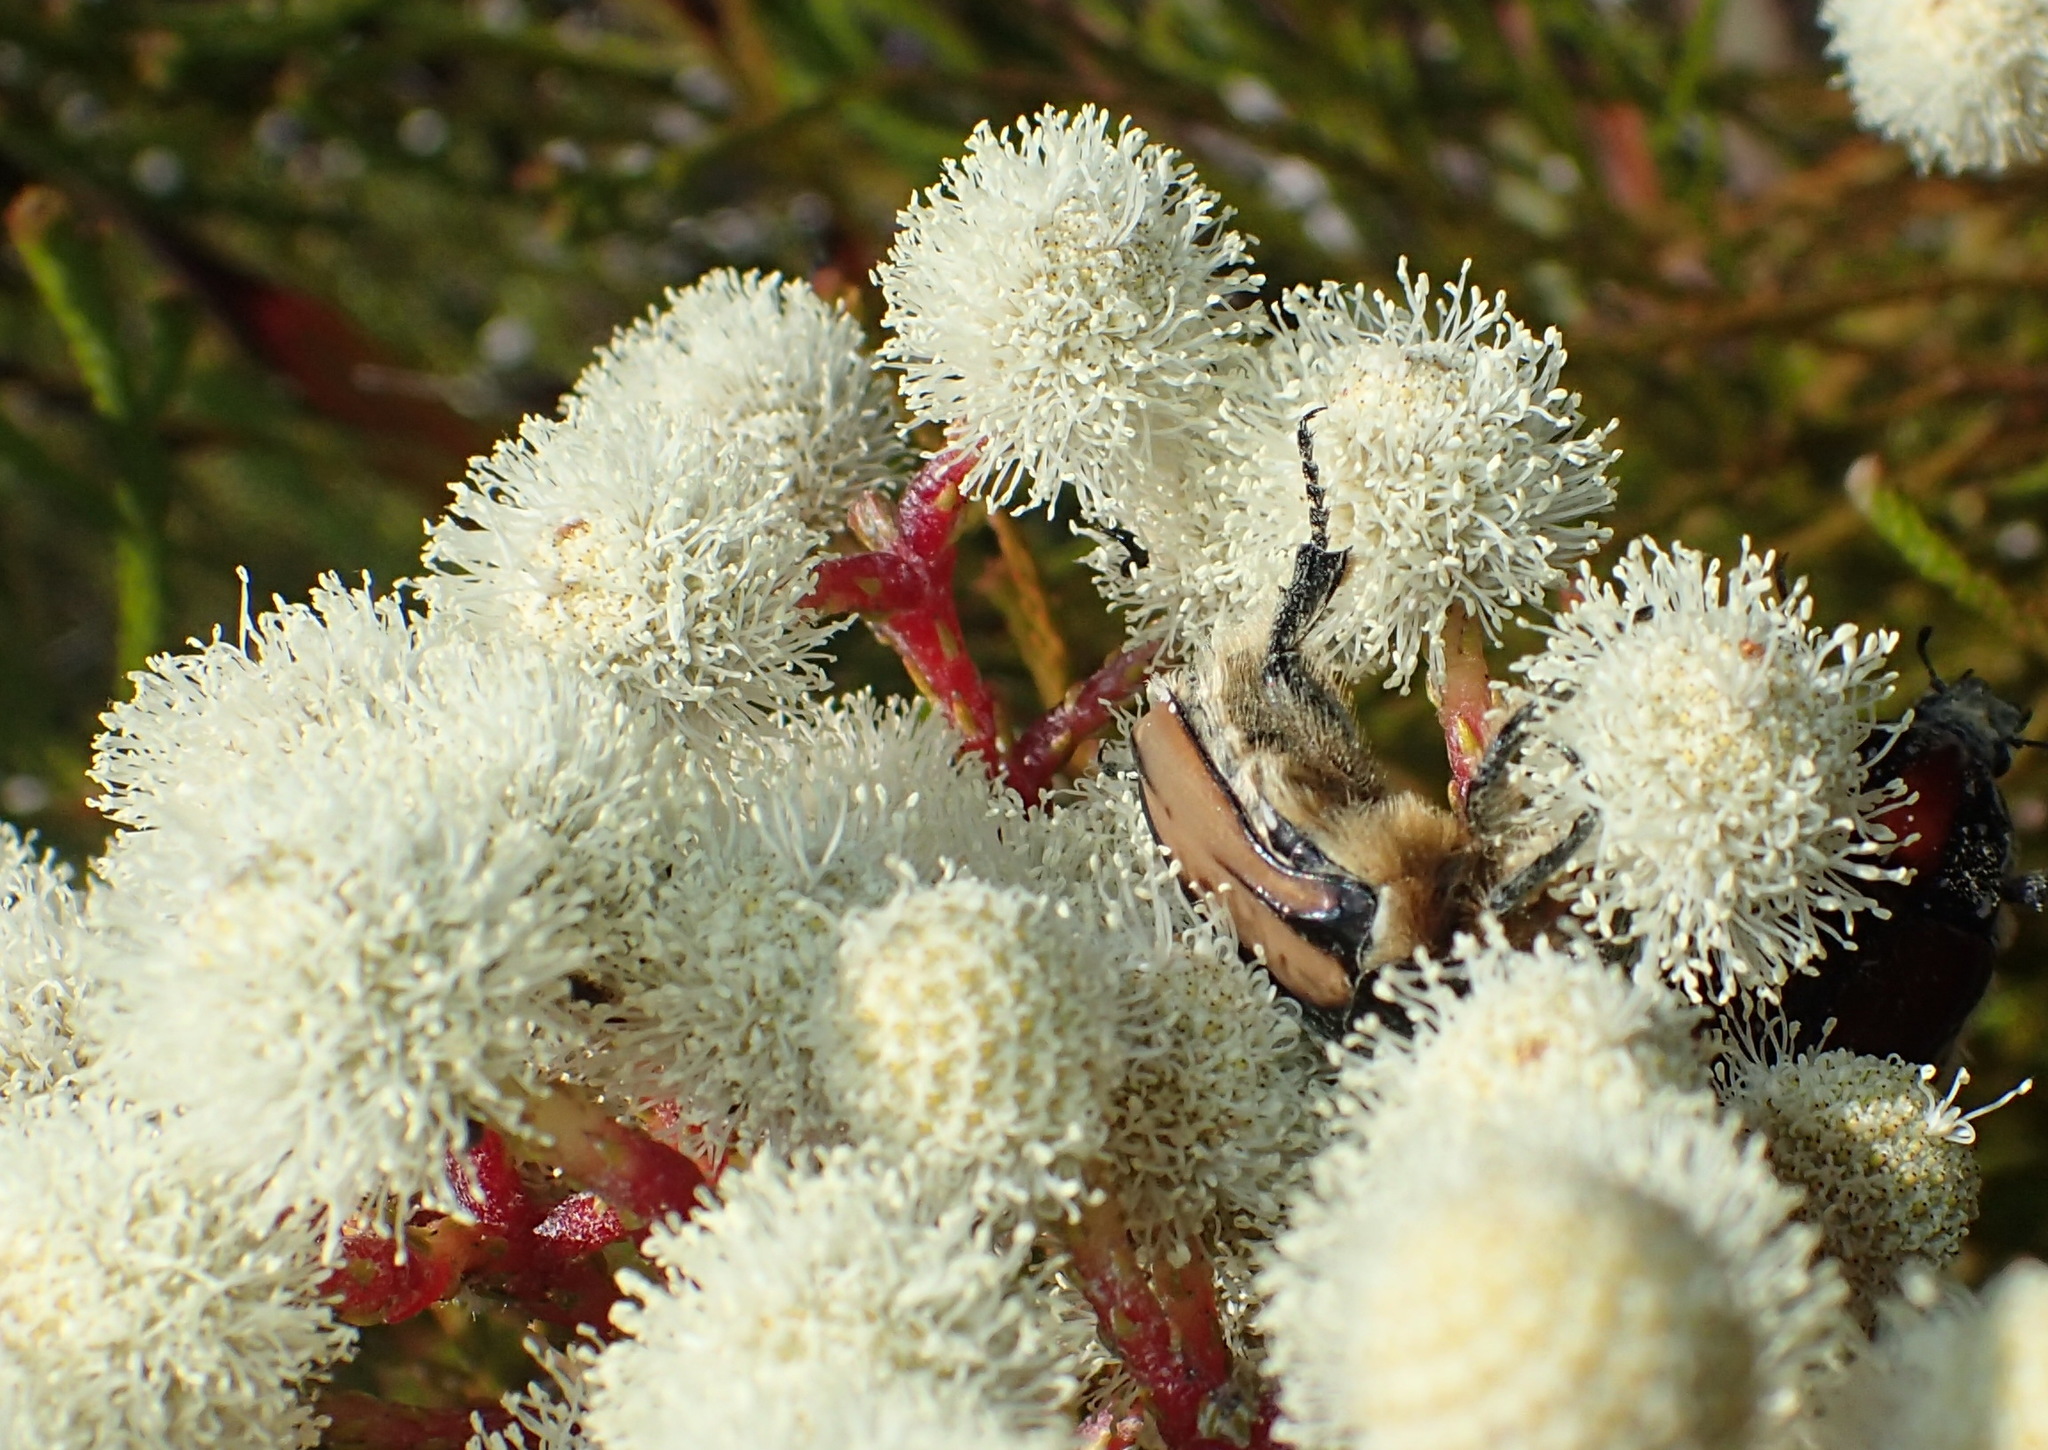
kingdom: Plantae
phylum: Tracheophyta
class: Magnoliopsida
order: Bruniales
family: Bruniaceae
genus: Berzelia
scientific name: Berzelia intermedia
